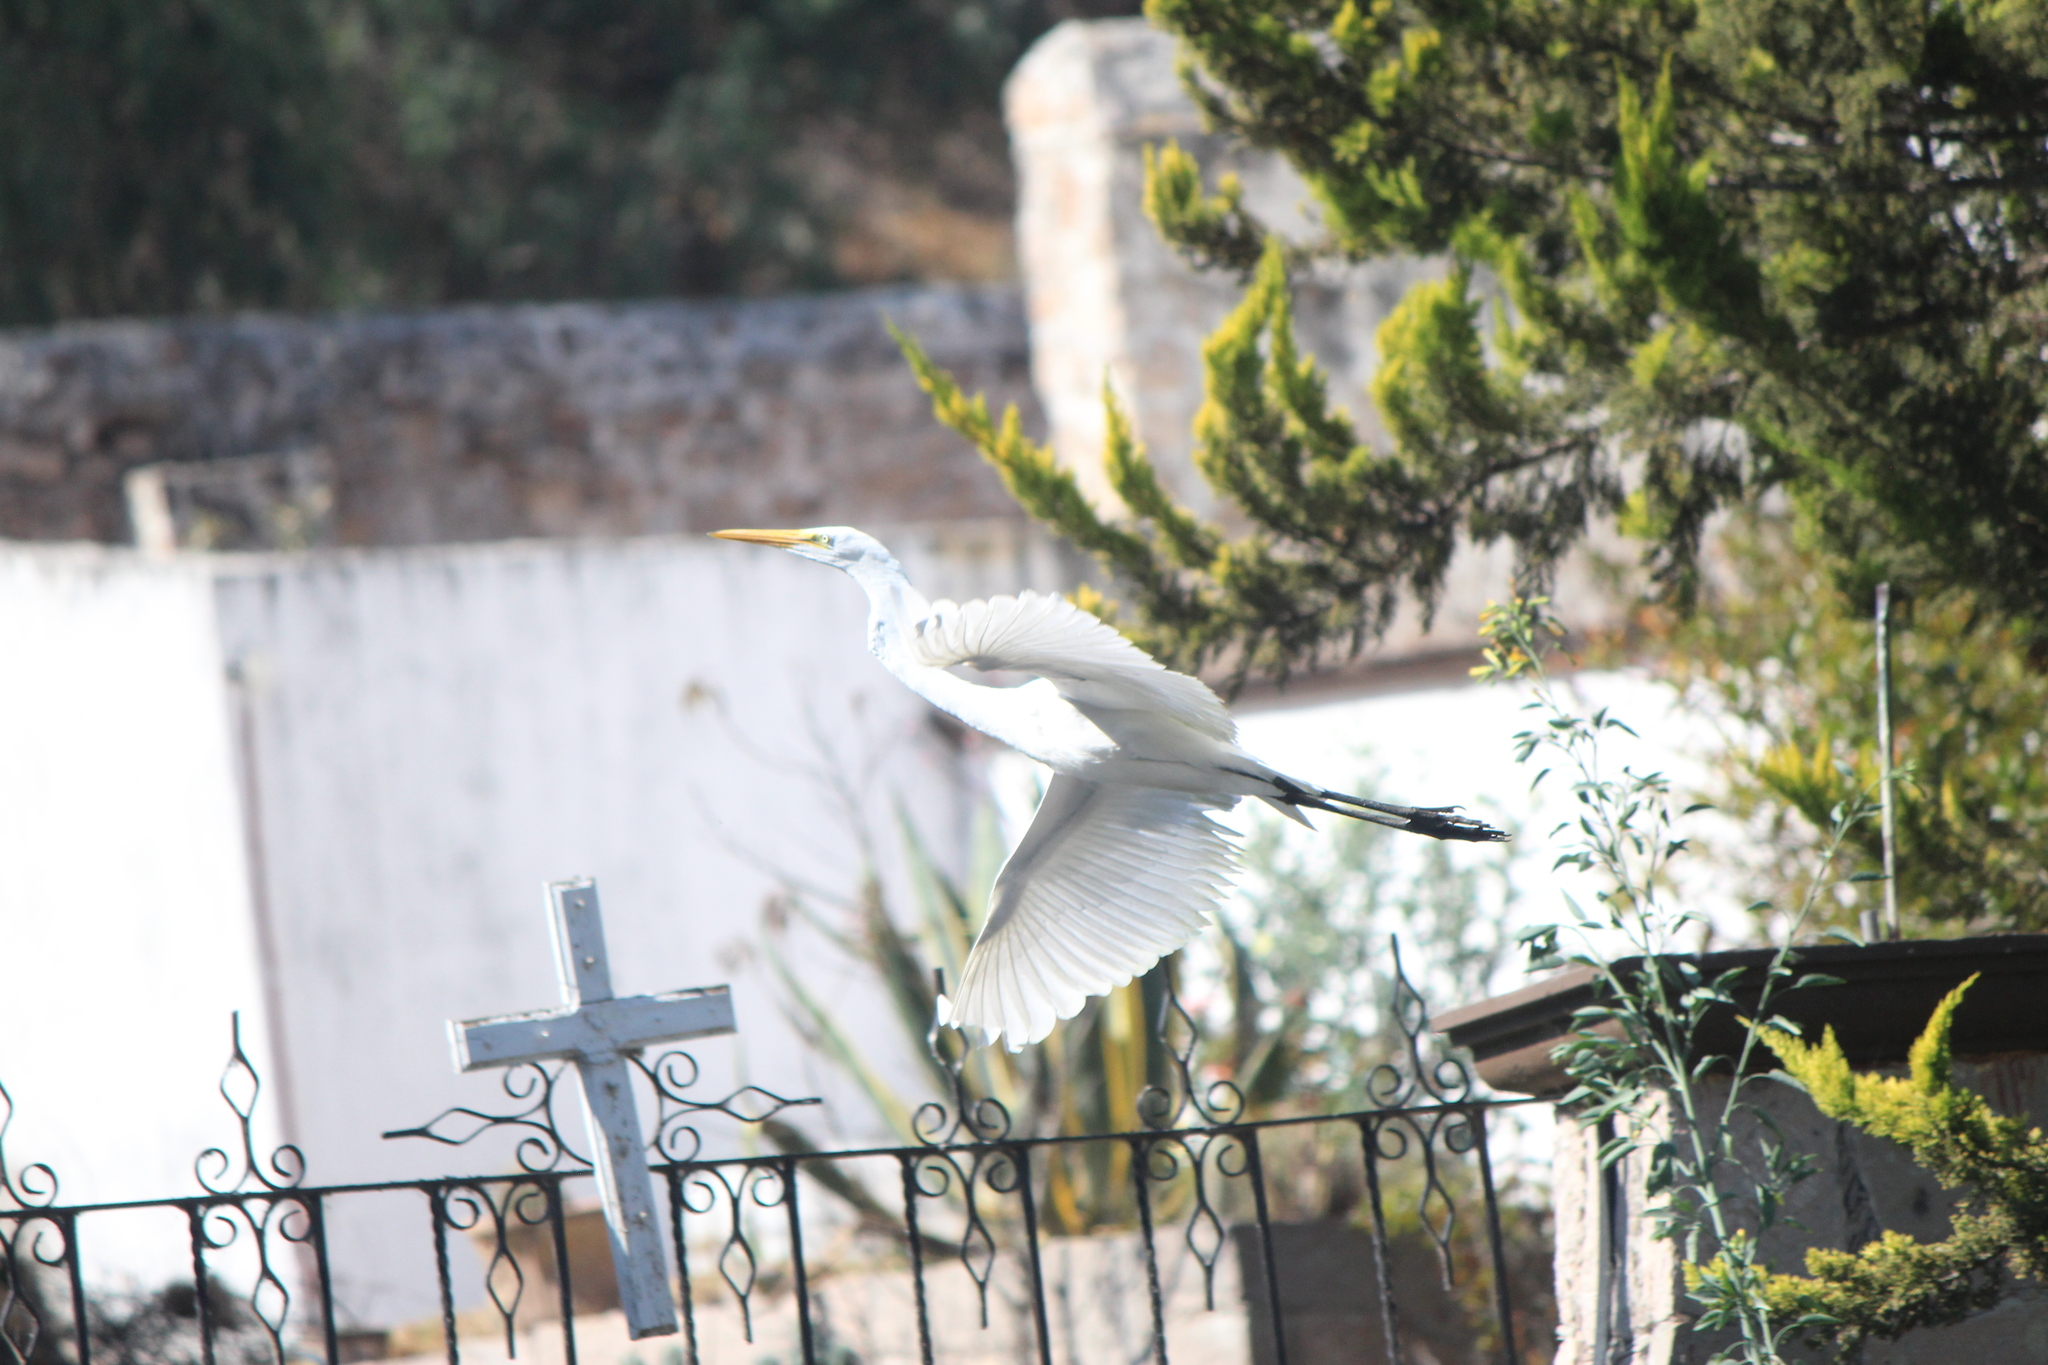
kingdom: Animalia
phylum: Chordata
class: Aves
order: Pelecaniformes
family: Ardeidae
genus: Ardea
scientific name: Ardea alba
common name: Great egret
